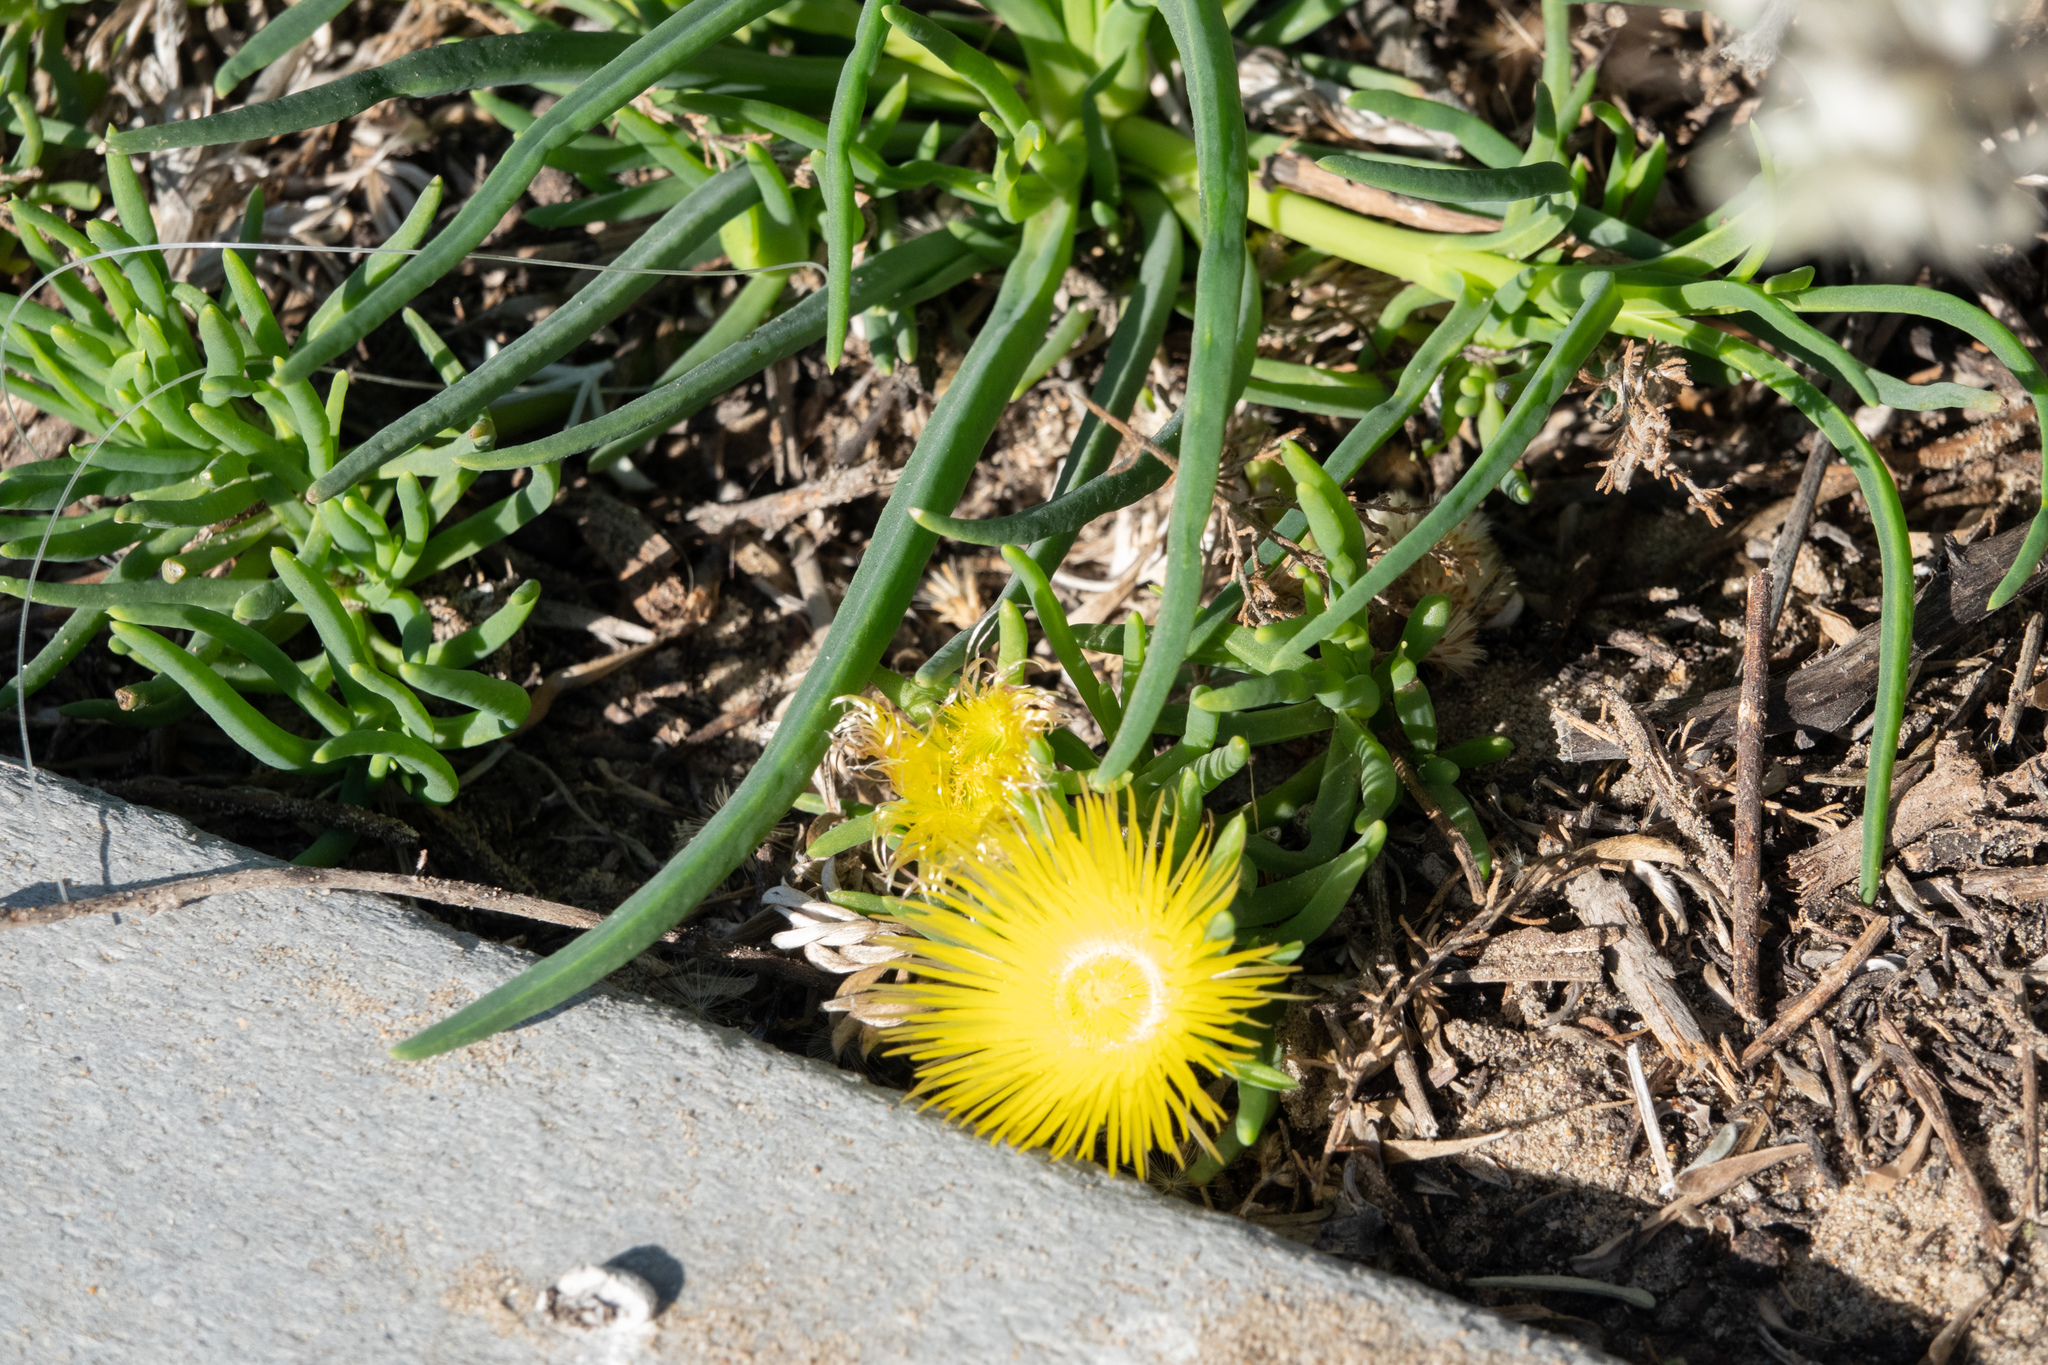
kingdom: Plantae
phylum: Tracheophyta
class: Magnoliopsida
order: Caryophyllales
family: Aizoaceae
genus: Conicosia
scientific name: Conicosia pugioniformis
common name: Narrow-leaved iceplant
